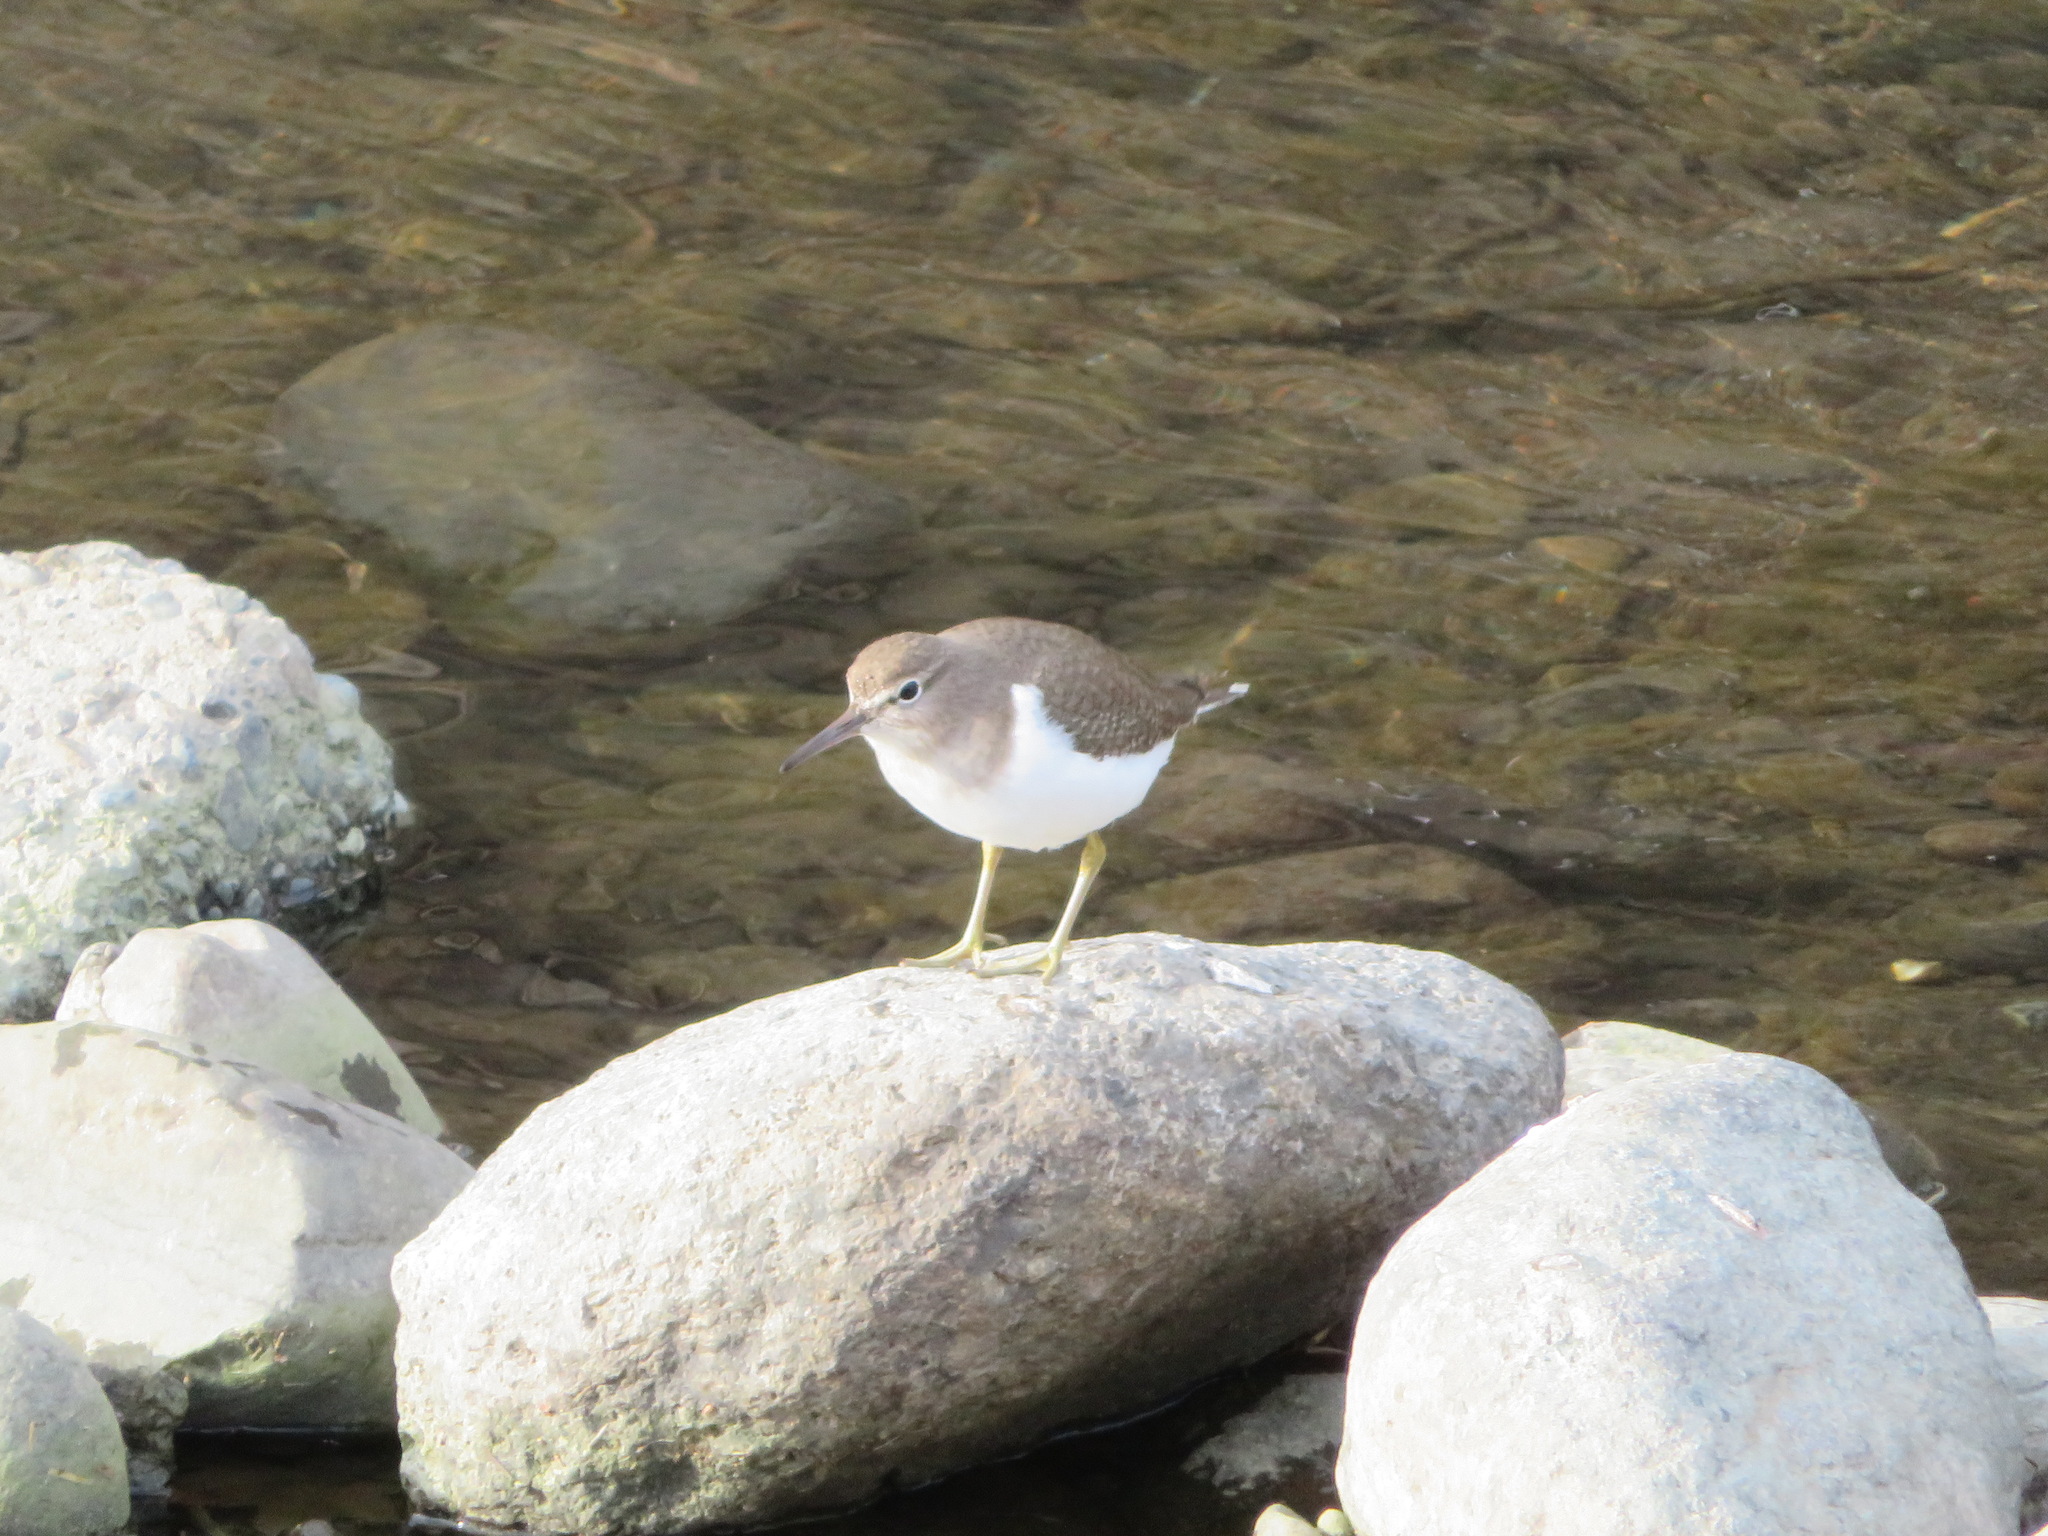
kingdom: Animalia
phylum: Chordata
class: Aves
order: Charadriiformes
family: Scolopacidae
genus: Actitis
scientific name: Actitis hypoleucos
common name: Common sandpiper
